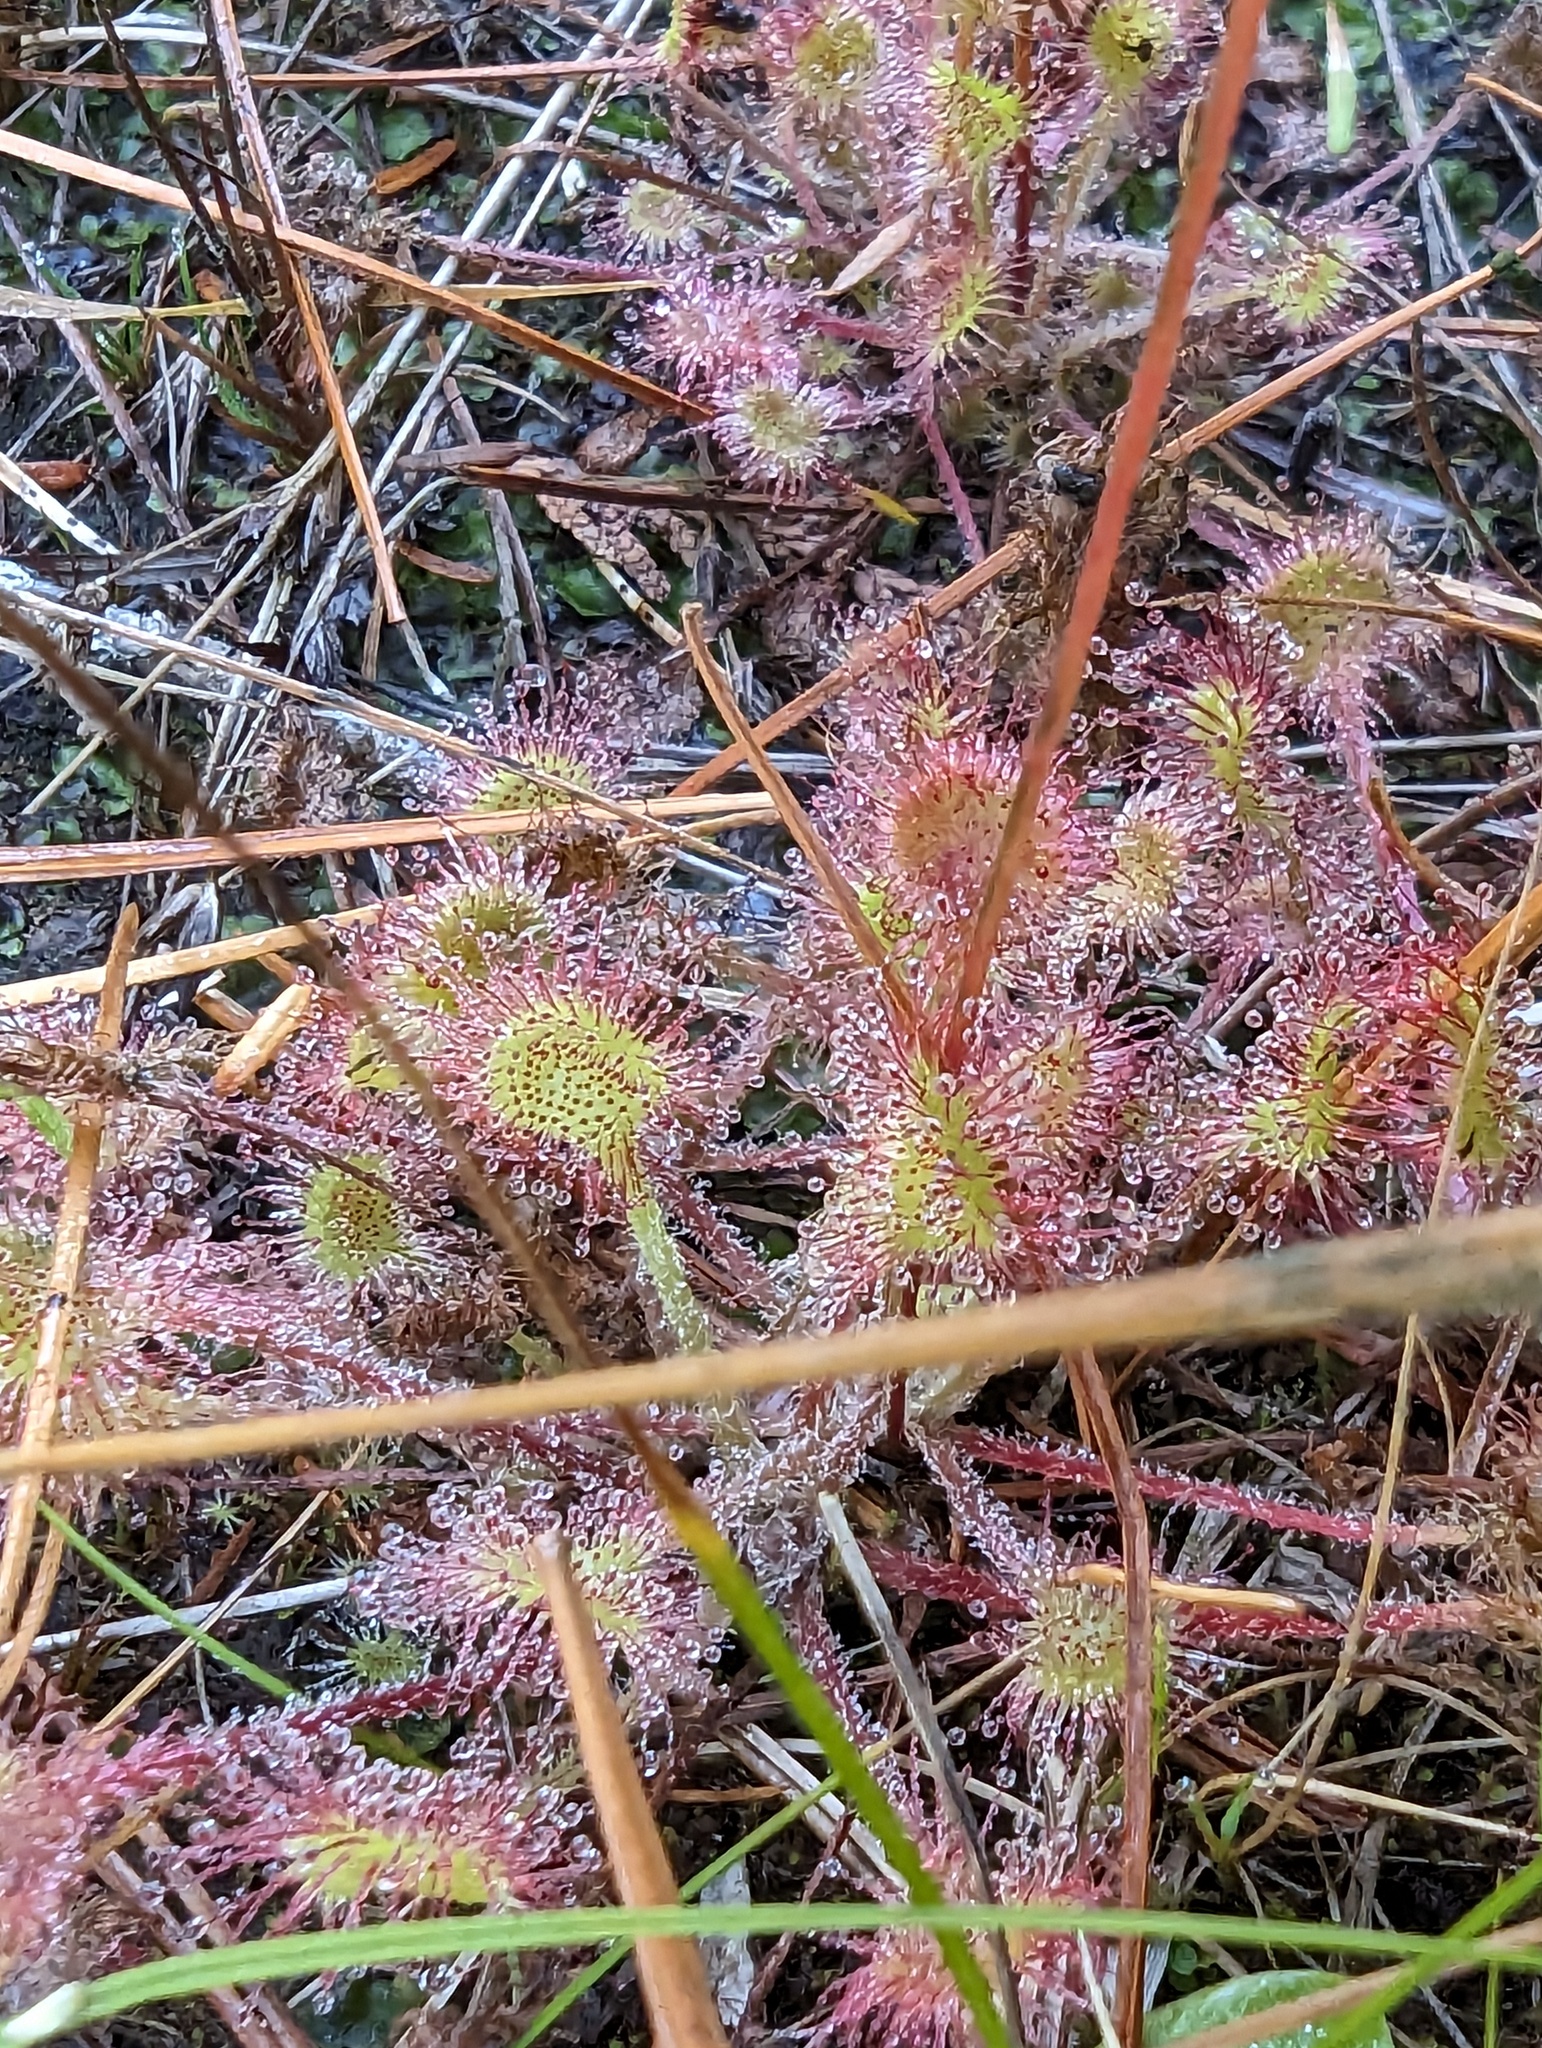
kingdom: Plantae
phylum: Tracheophyta
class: Magnoliopsida
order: Caryophyllales
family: Droseraceae
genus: Drosera
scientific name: Drosera rotundifolia
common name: Round-leaved sundew
